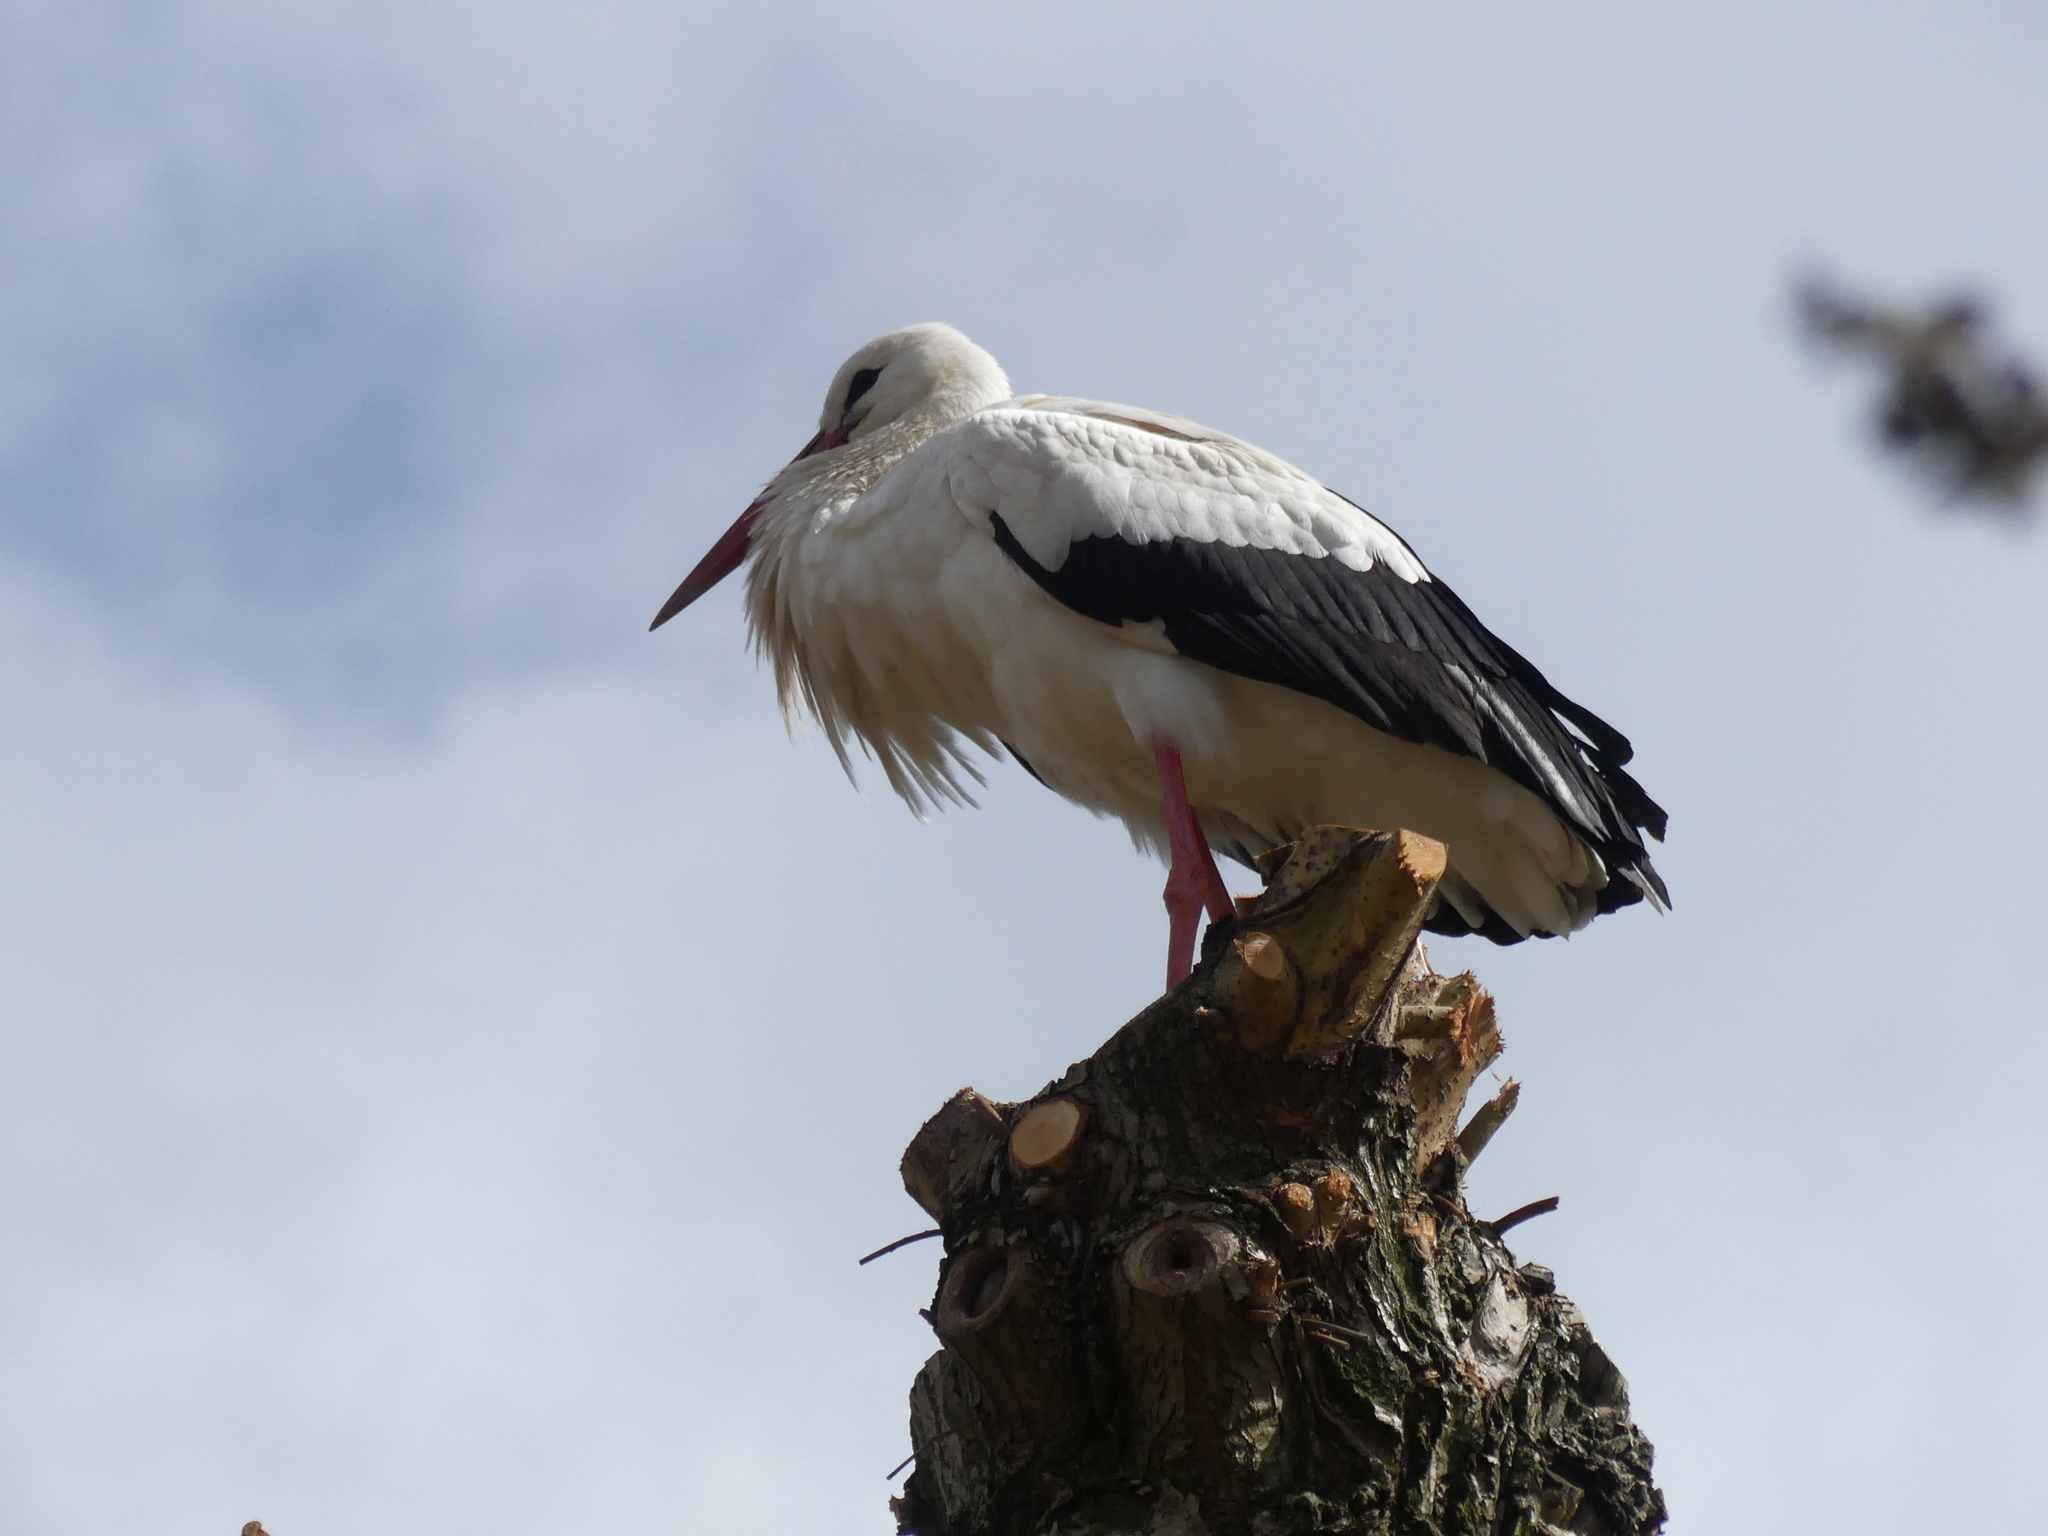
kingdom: Animalia
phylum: Chordata
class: Aves
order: Ciconiiformes
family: Ciconiidae
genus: Ciconia
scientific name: Ciconia ciconia
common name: White stork
